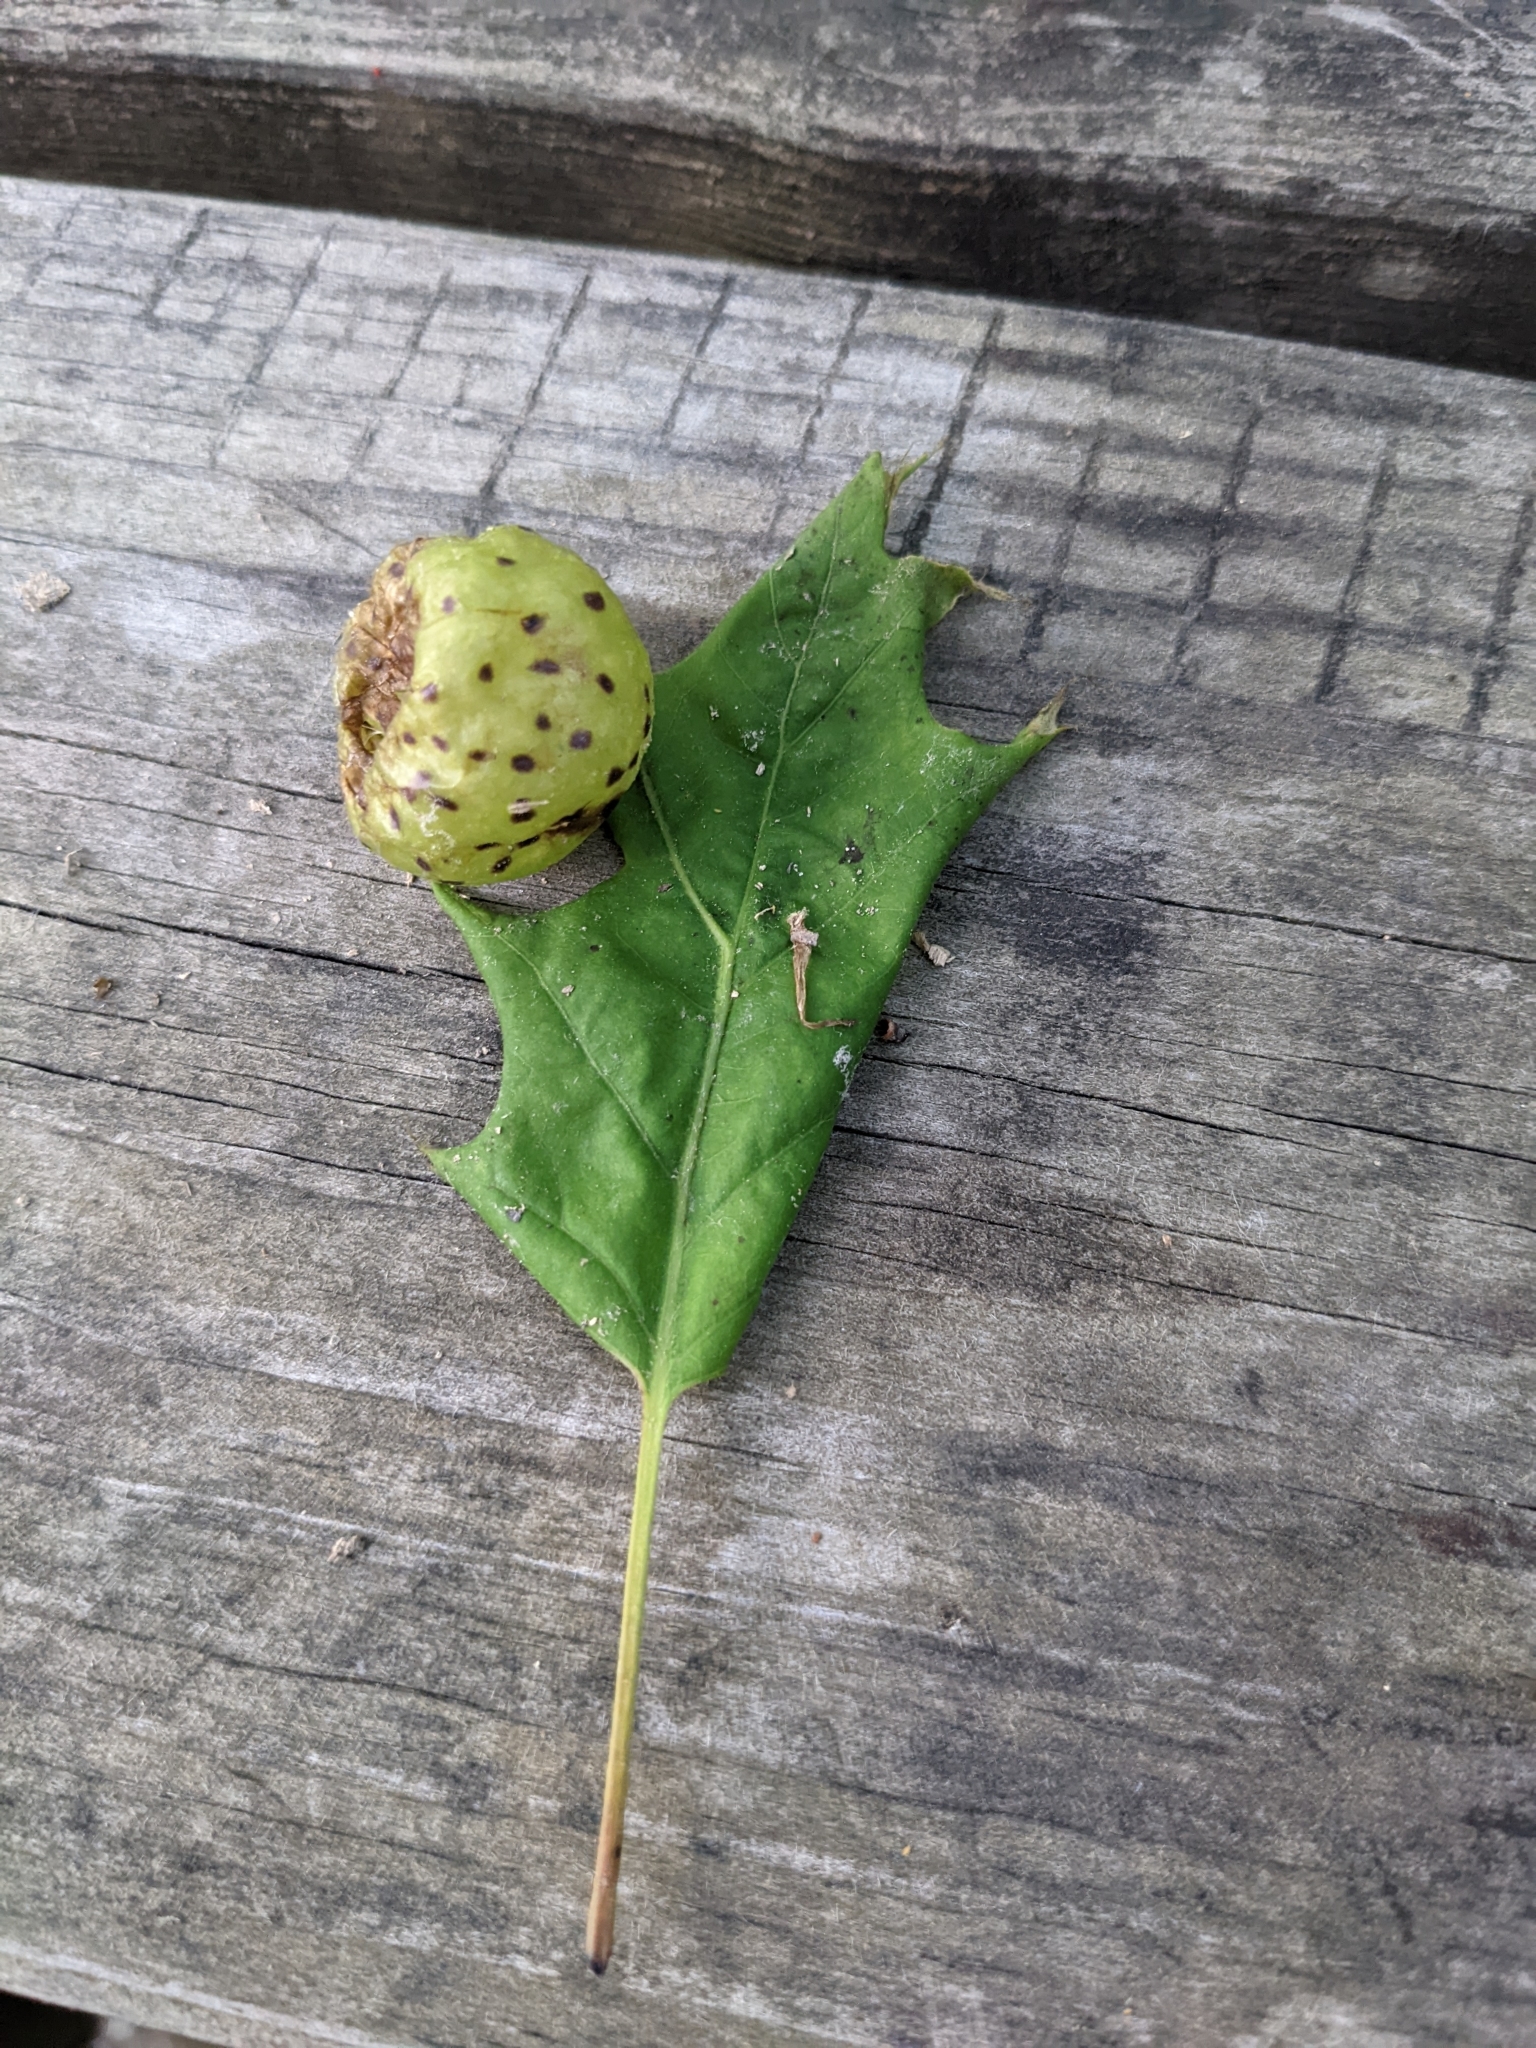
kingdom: Animalia
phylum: Arthropoda
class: Insecta
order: Hymenoptera
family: Cynipidae
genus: Amphibolips
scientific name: Amphibolips
